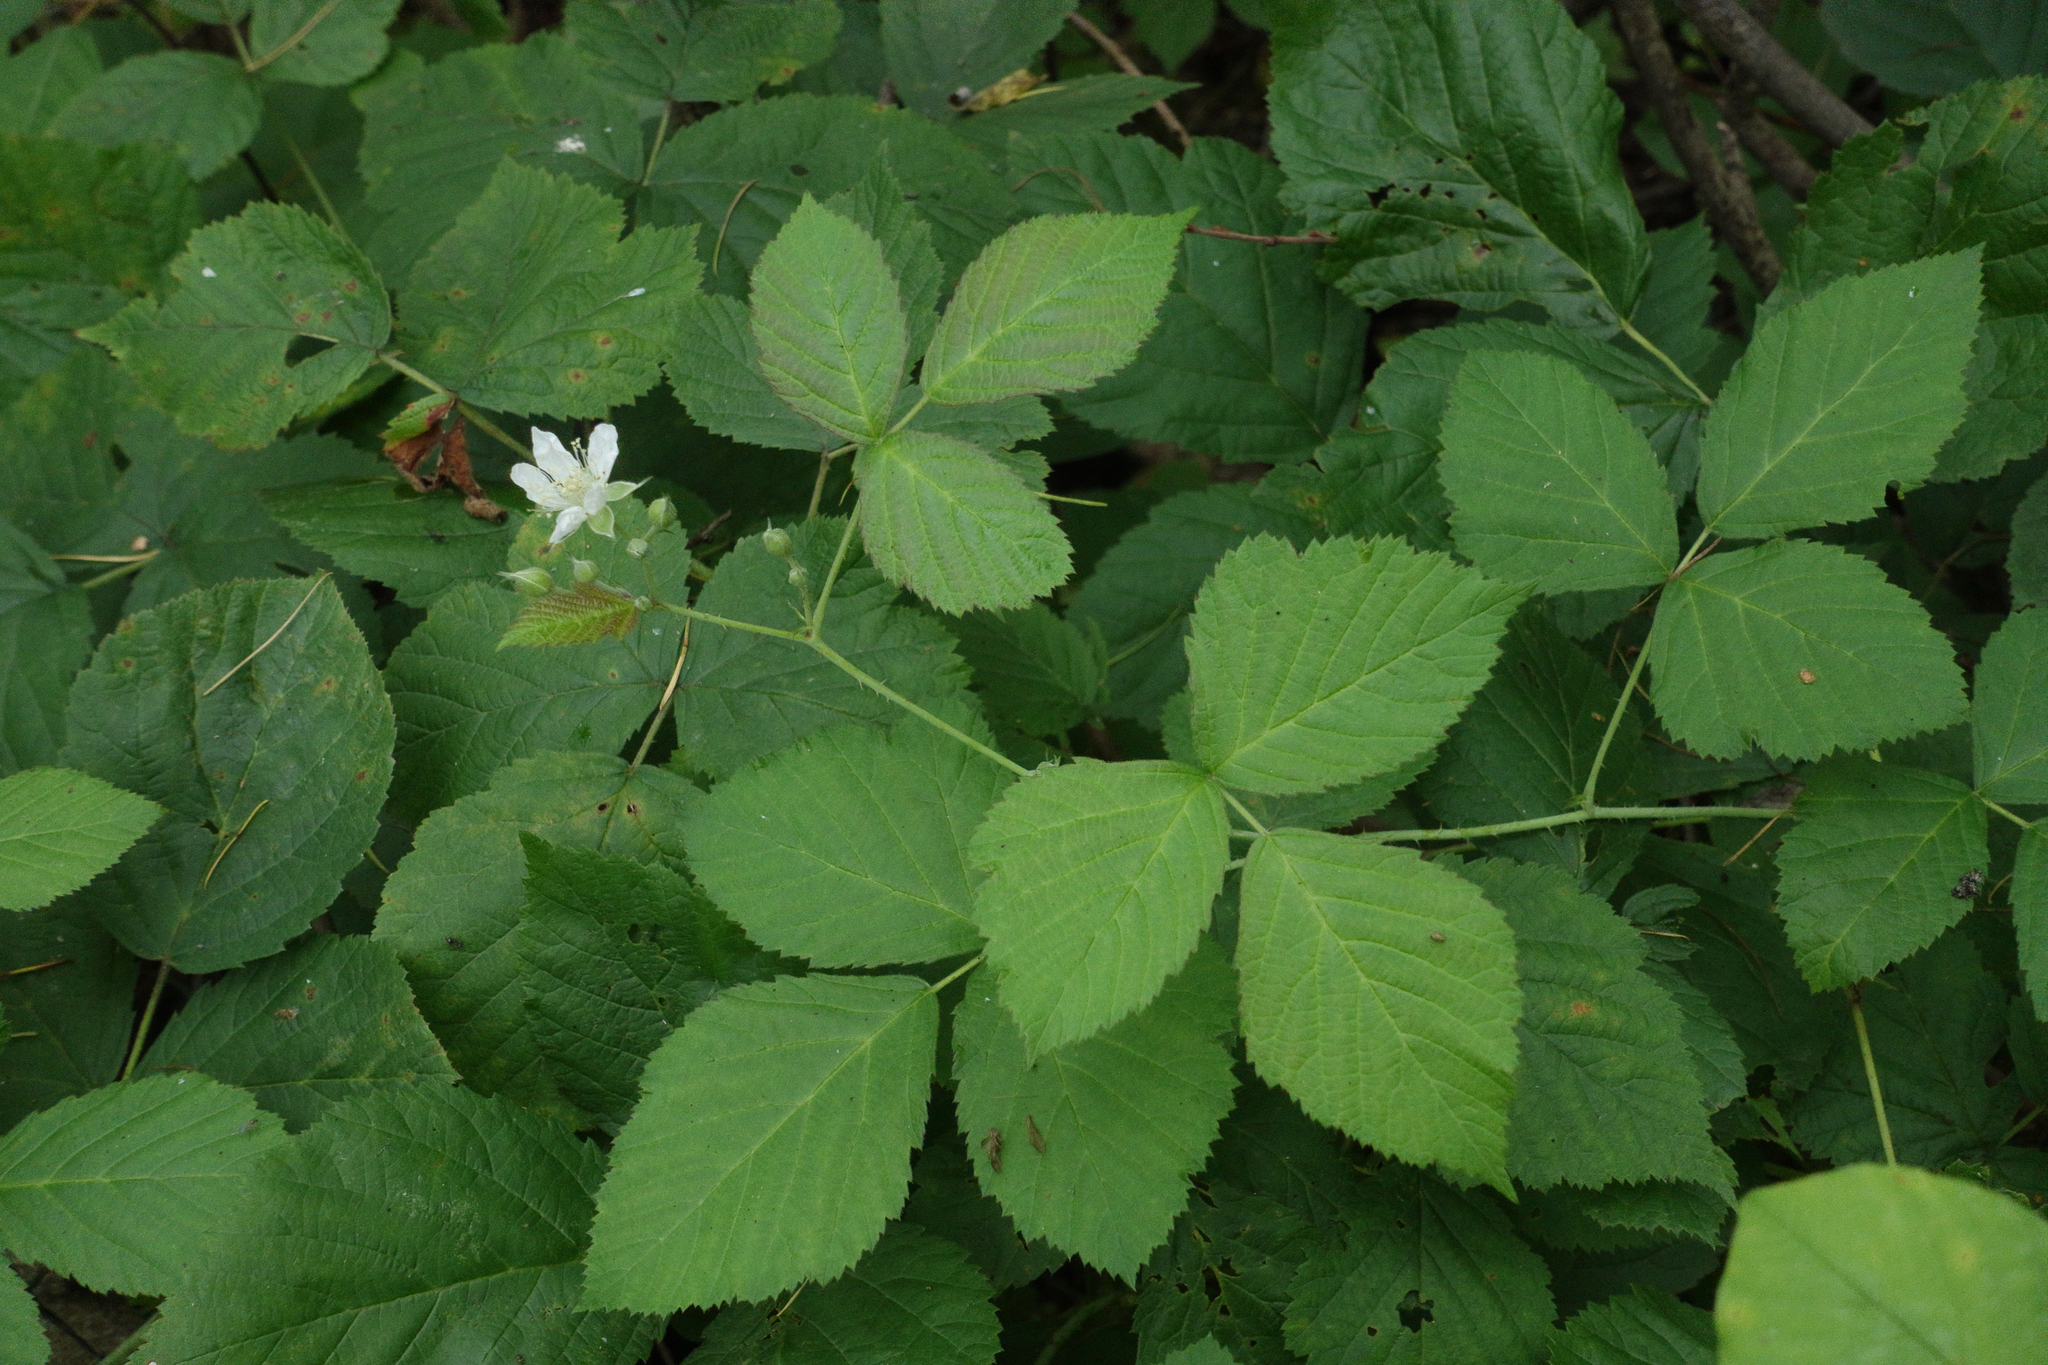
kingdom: Plantae
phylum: Tracheophyta
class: Magnoliopsida
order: Rosales
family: Rosaceae
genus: Rubus
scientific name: Rubus caesius
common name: Dewberry
